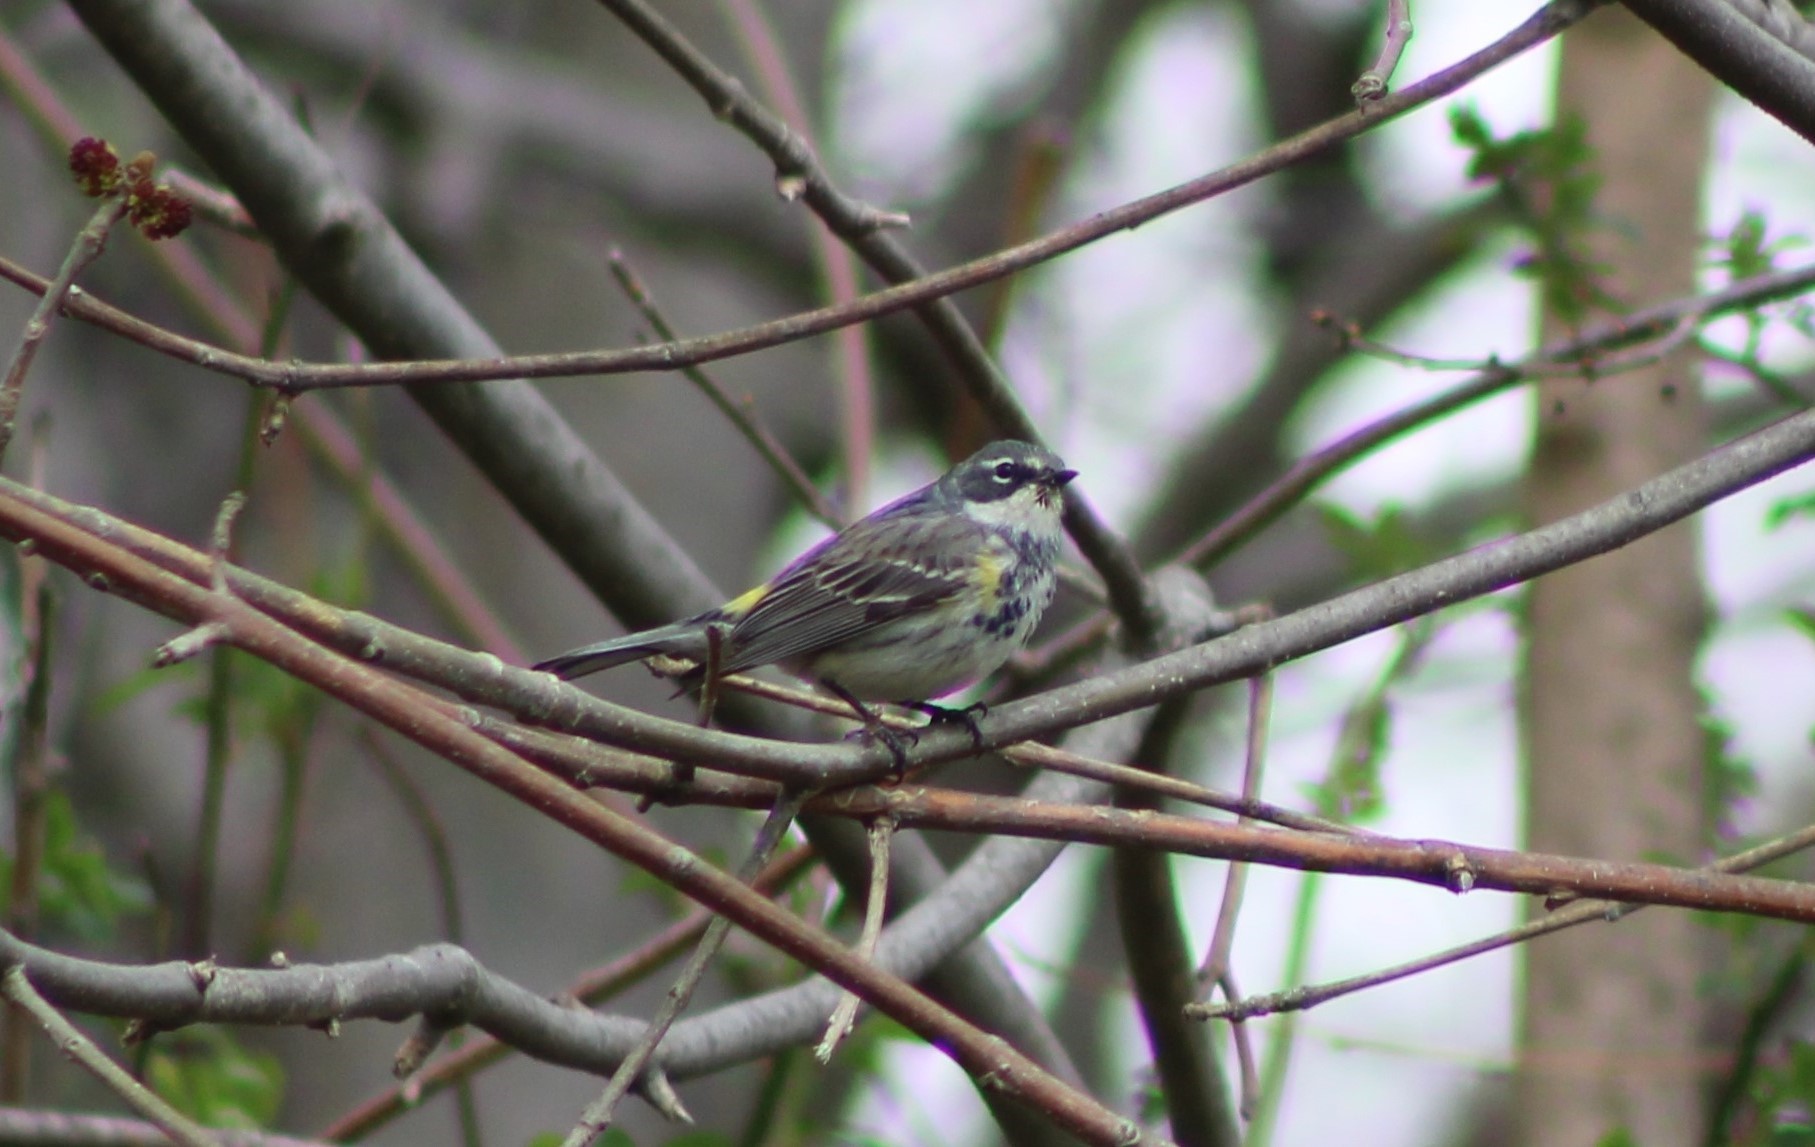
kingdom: Animalia
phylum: Chordata
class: Aves
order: Passeriformes
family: Parulidae
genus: Setophaga
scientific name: Setophaga coronata
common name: Myrtle warbler
